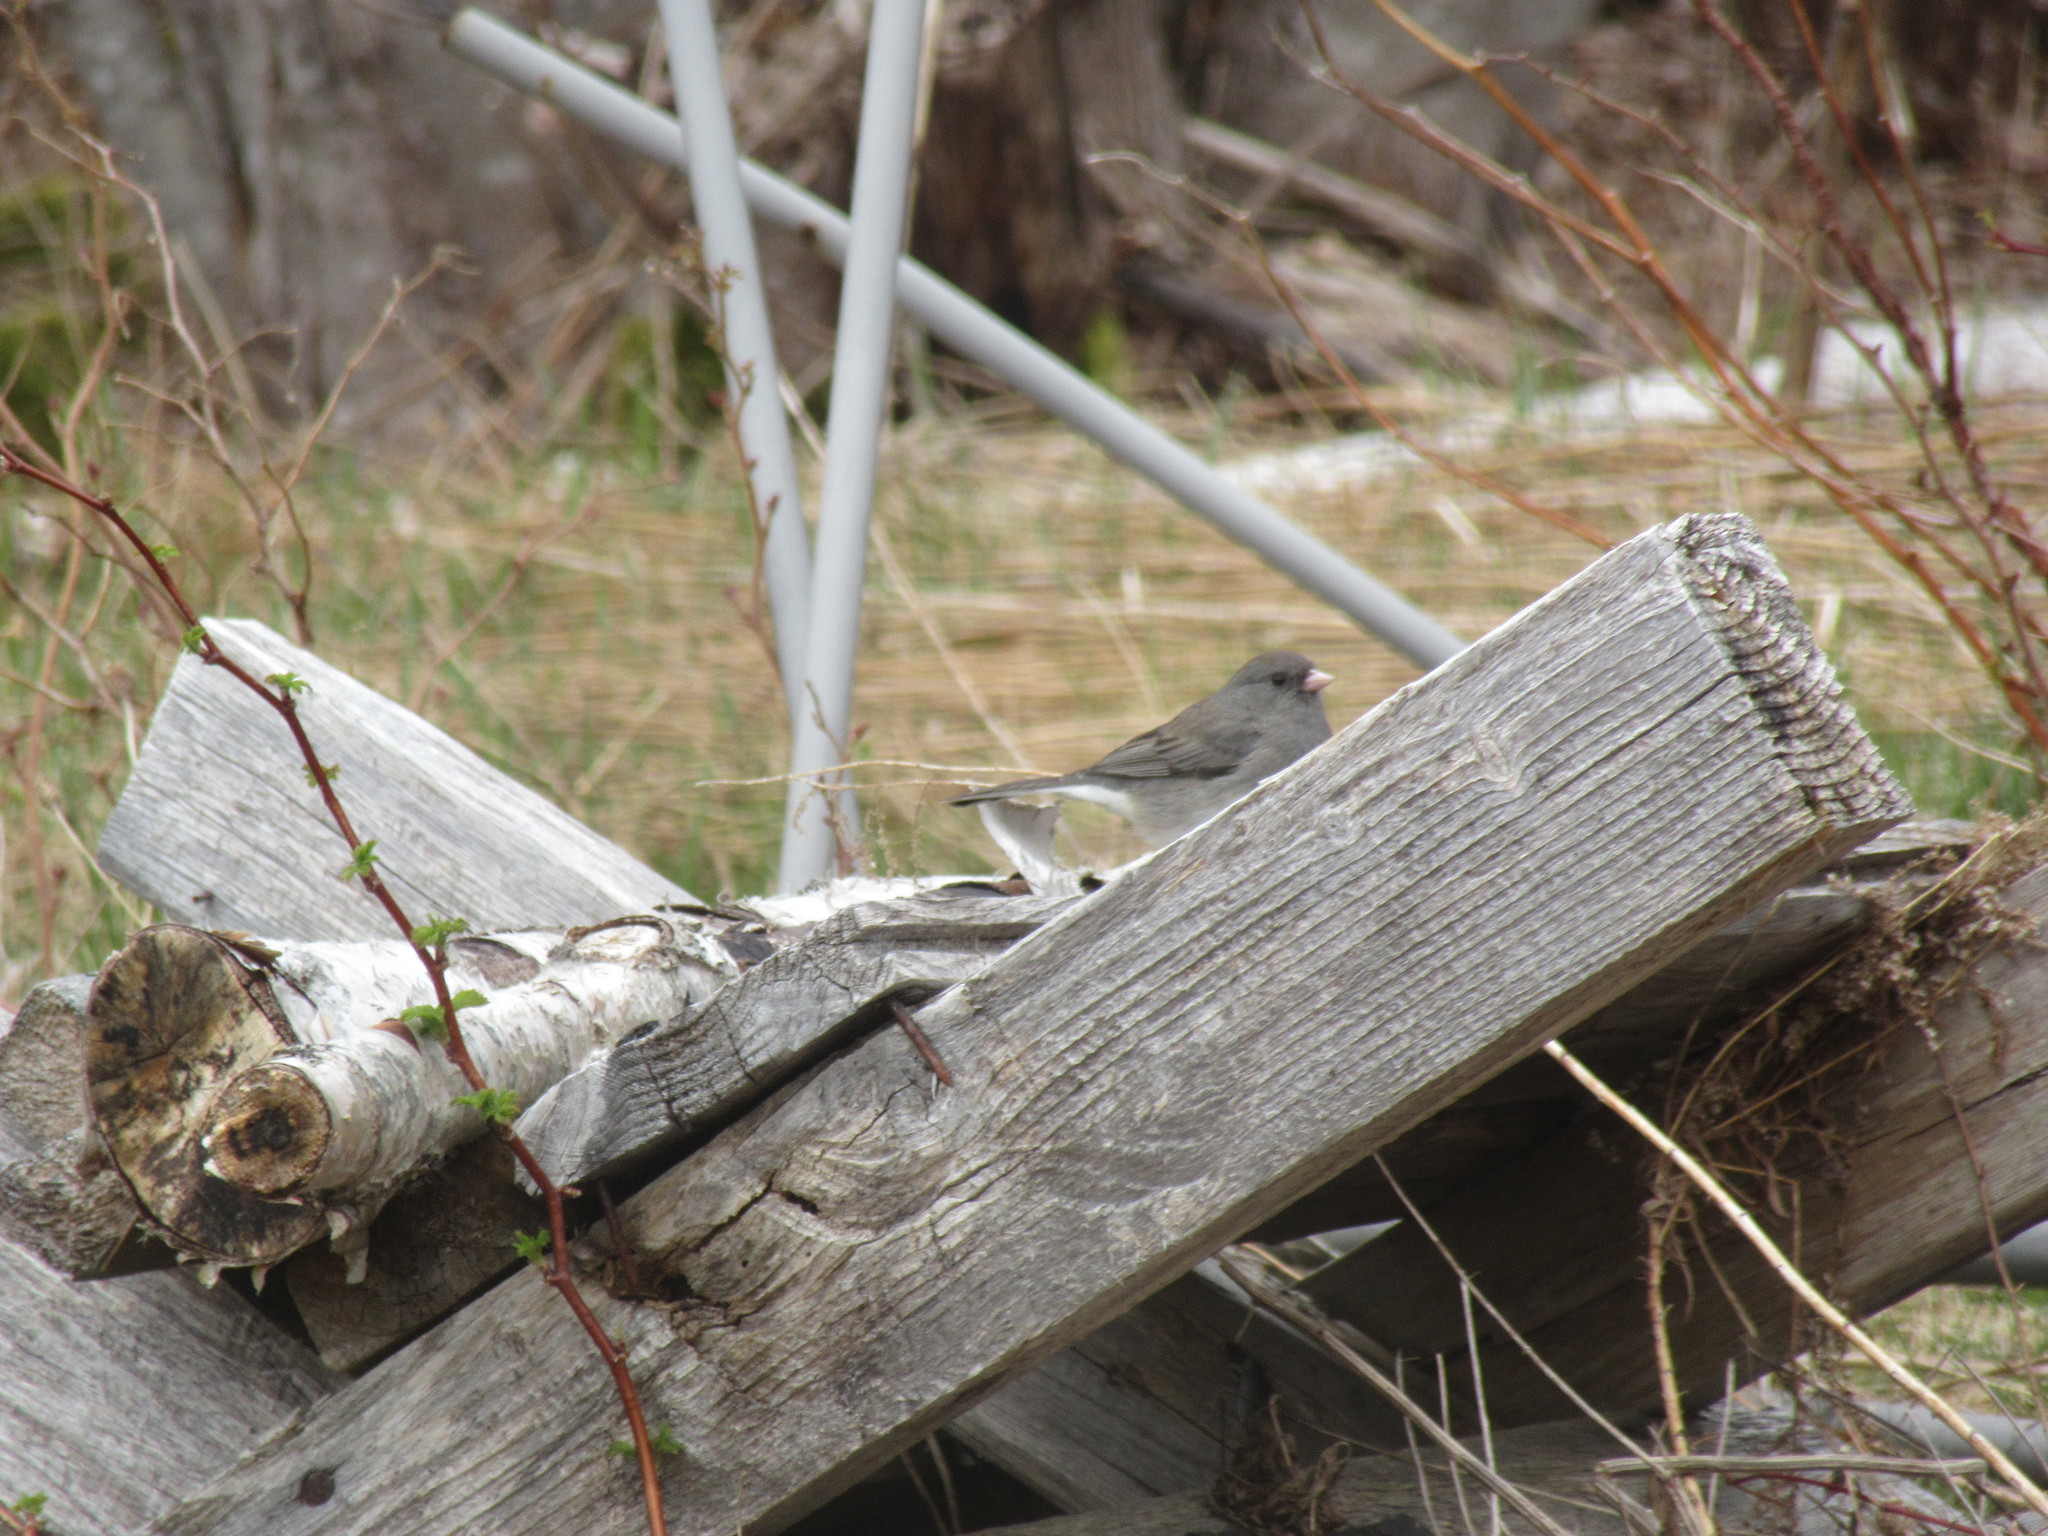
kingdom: Animalia
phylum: Chordata
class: Aves
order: Passeriformes
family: Passerellidae
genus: Junco
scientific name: Junco hyemalis
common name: Dark-eyed junco
